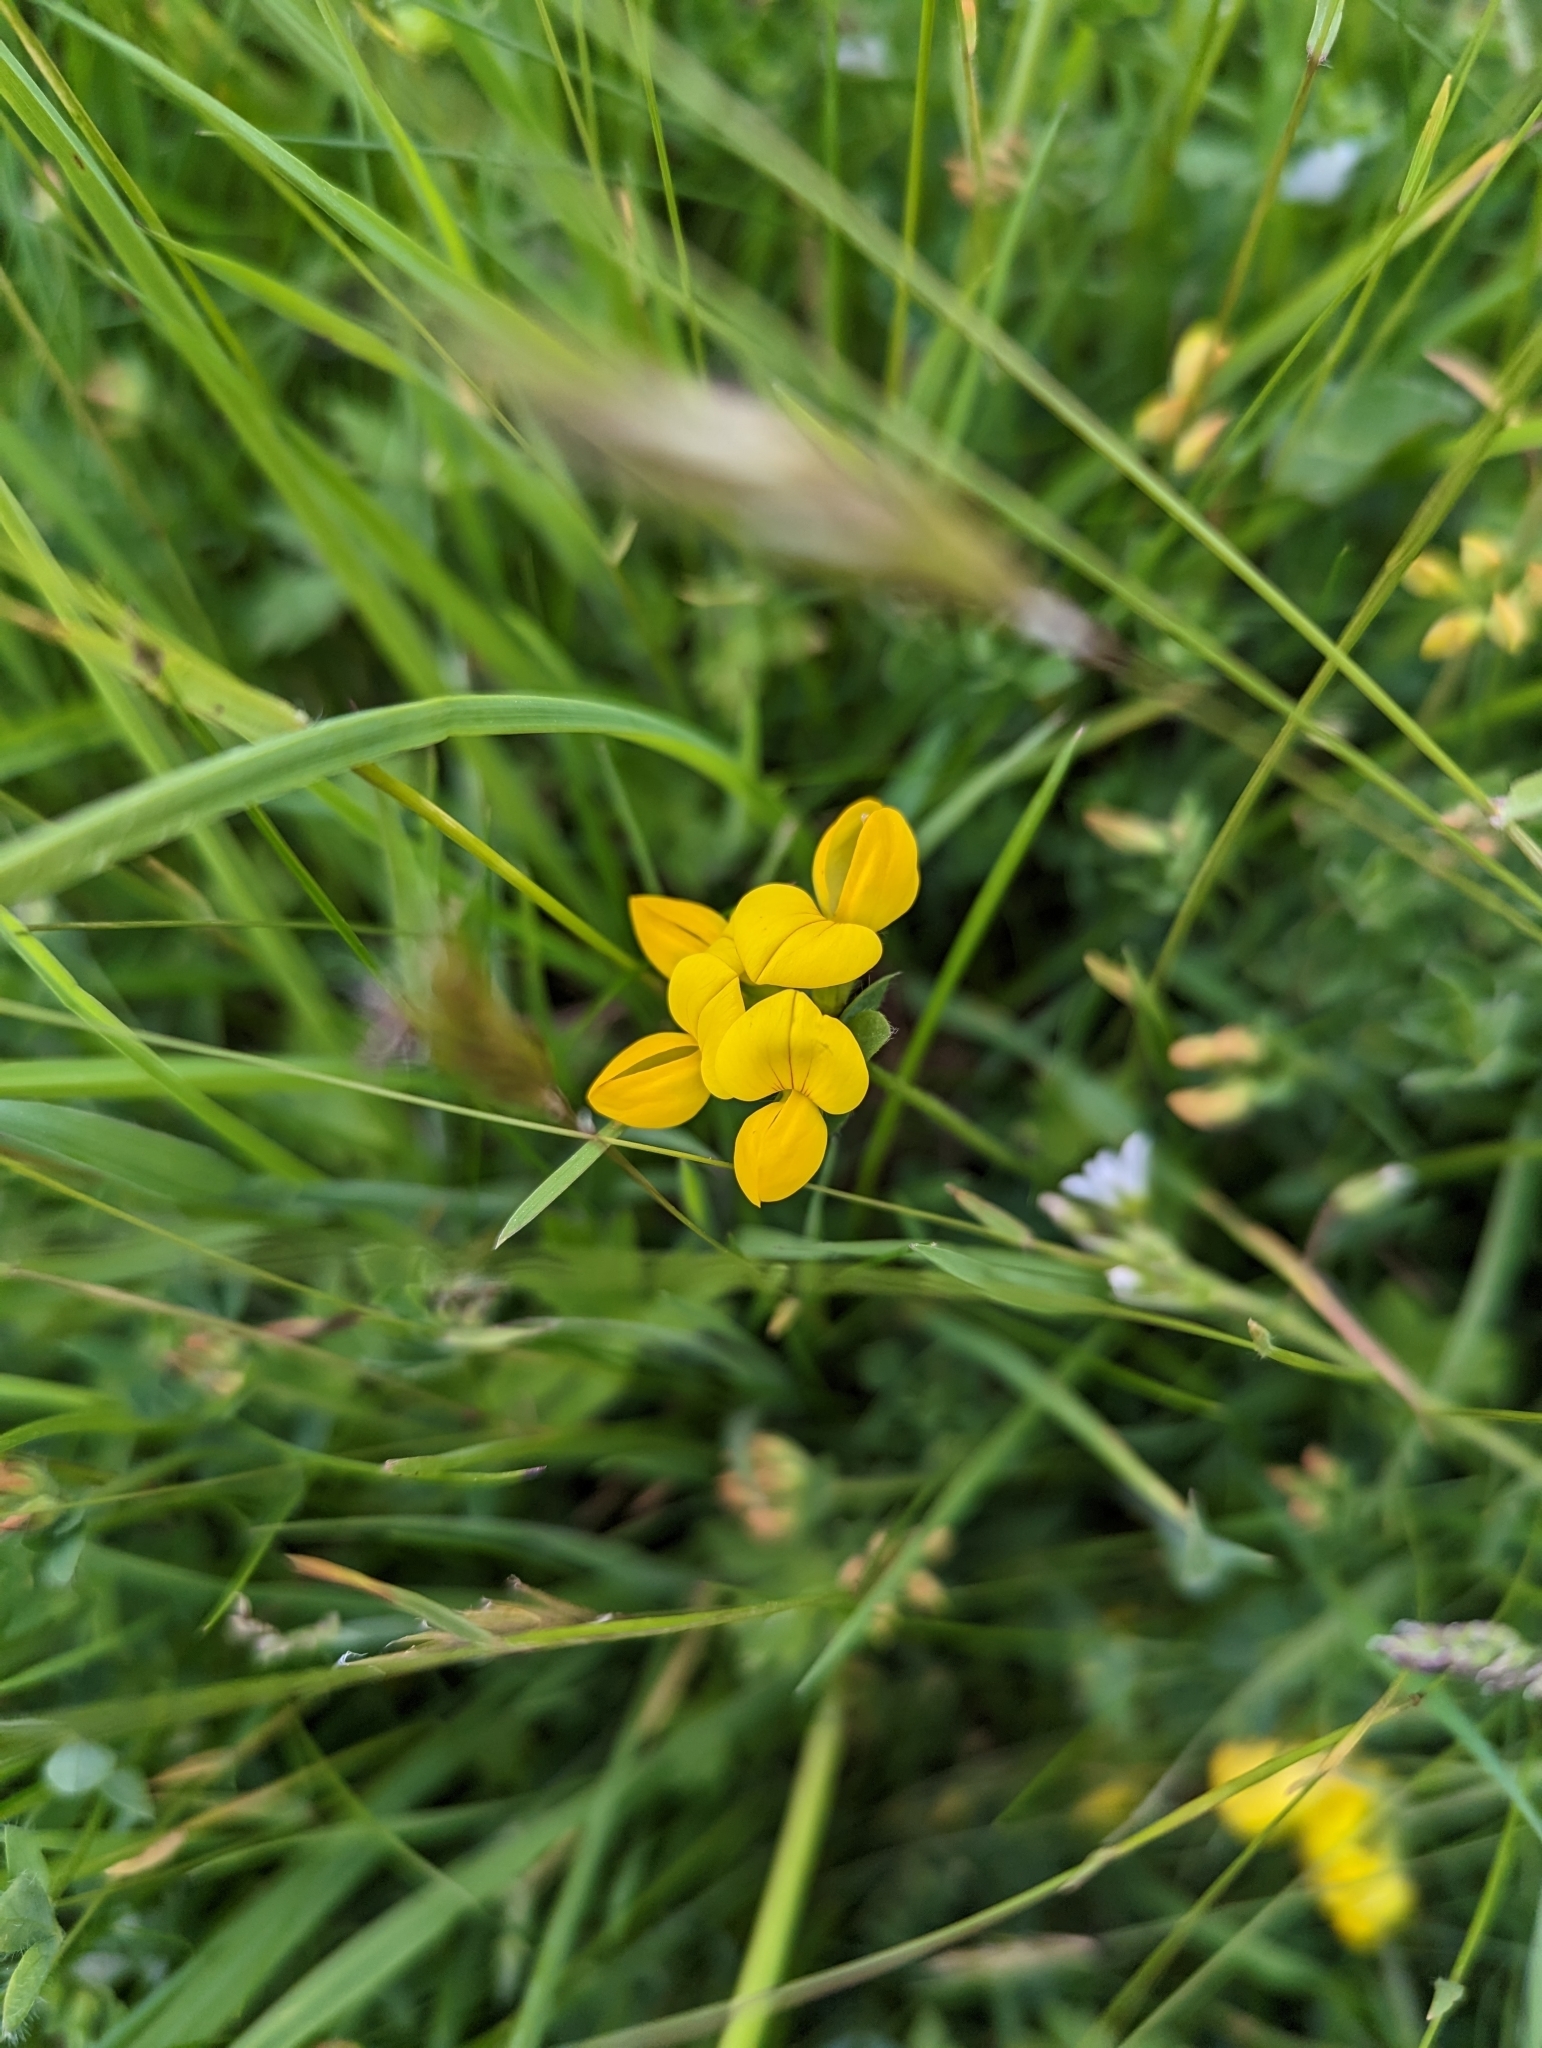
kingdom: Plantae
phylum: Tracheophyta
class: Magnoliopsida
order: Fabales
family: Fabaceae
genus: Lotus
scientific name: Lotus corniculatus
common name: Common bird's-foot-trefoil
